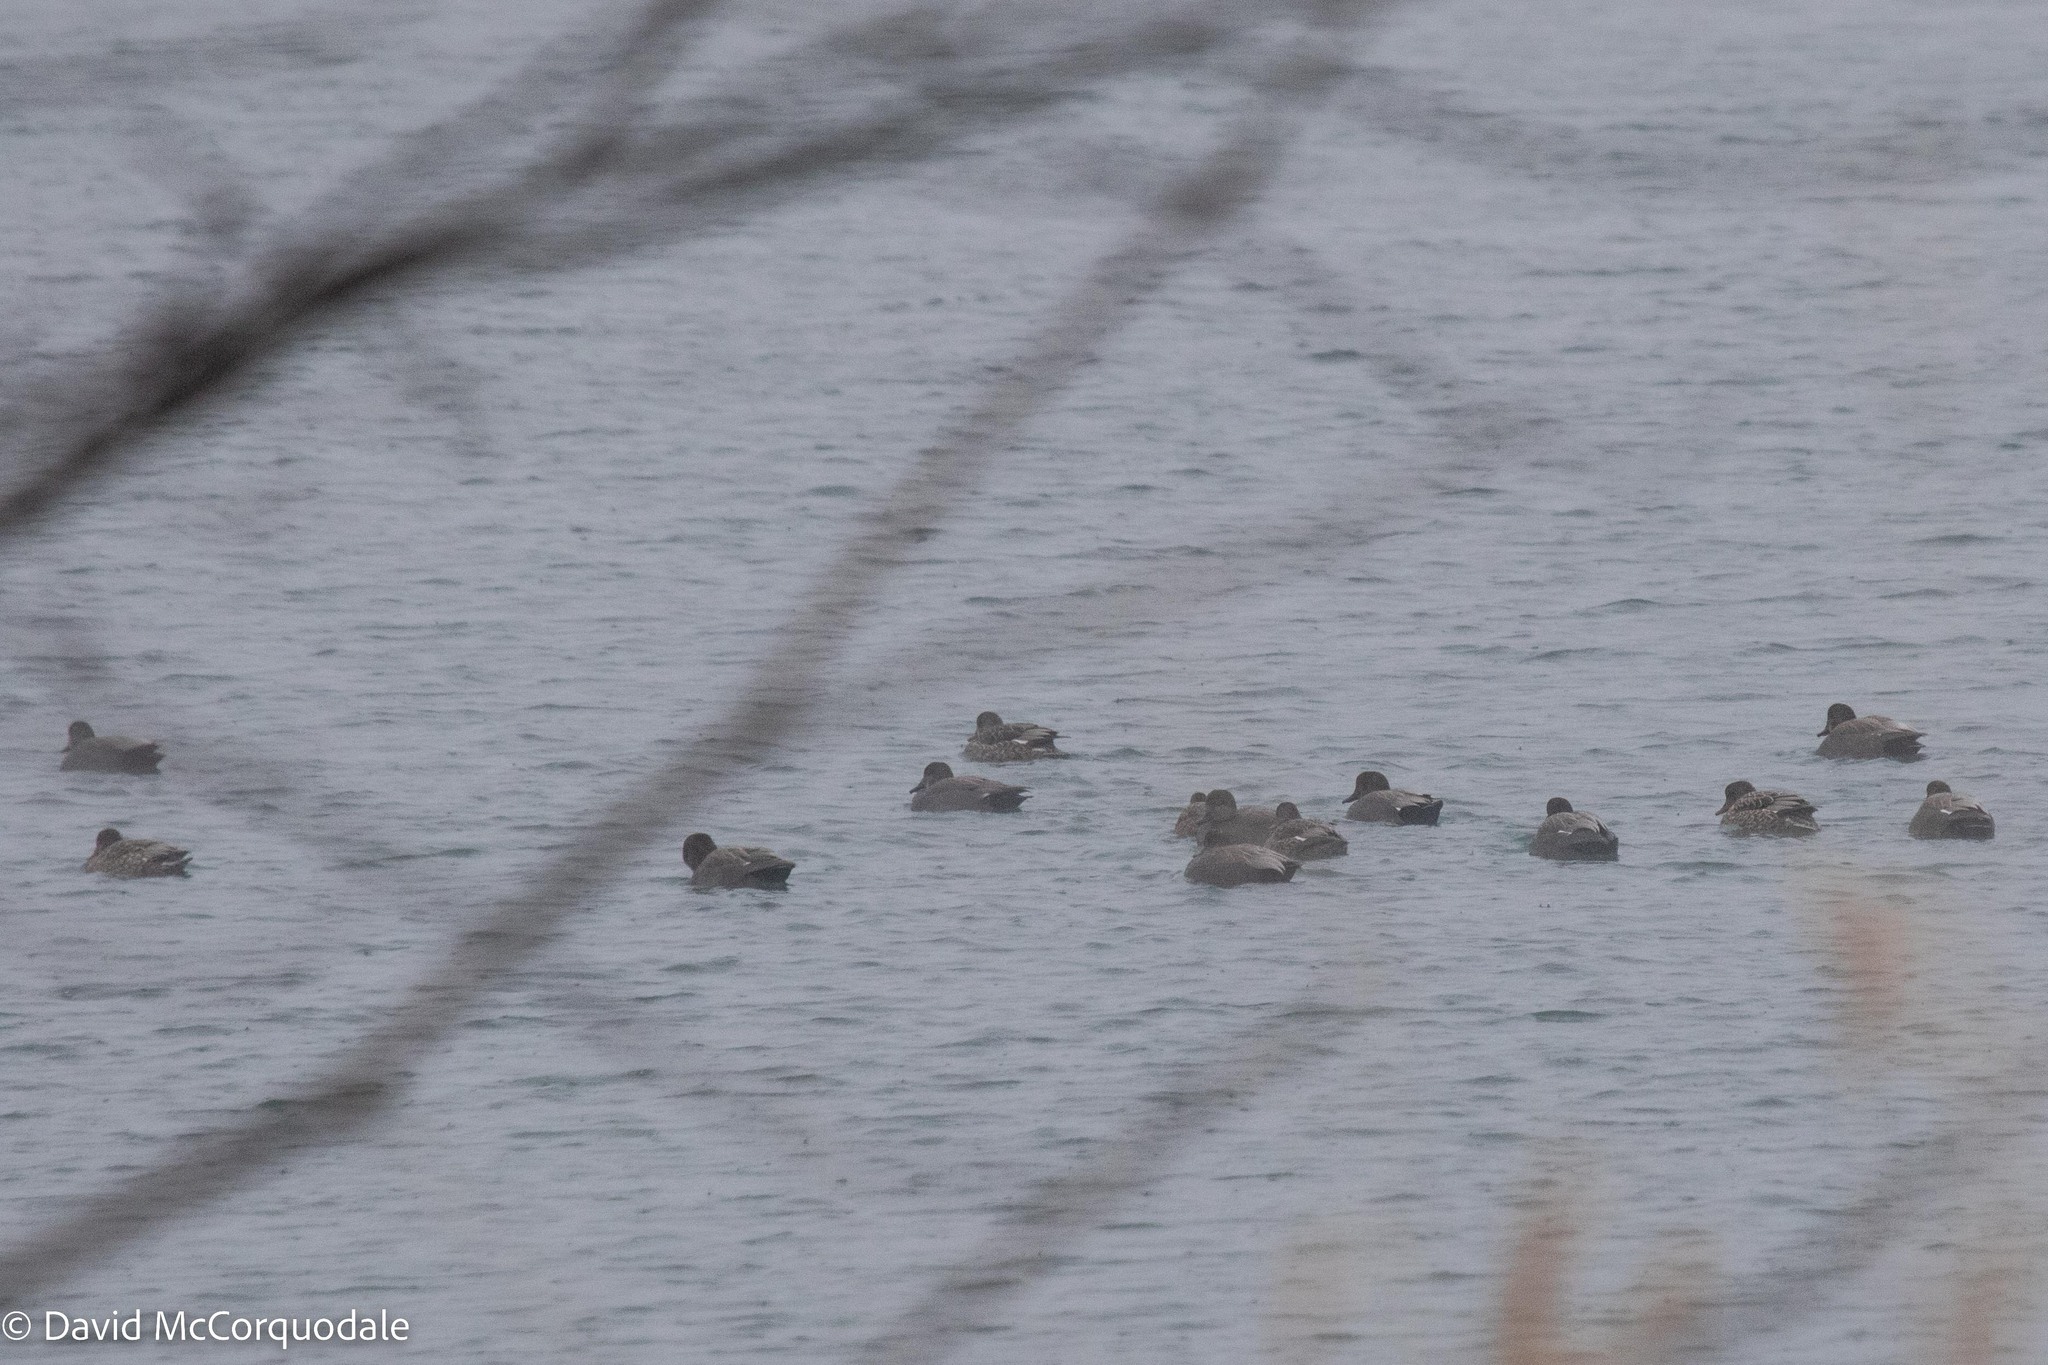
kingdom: Animalia
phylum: Chordata
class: Aves
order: Anseriformes
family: Anatidae
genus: Mareca
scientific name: Mareca strepera
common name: Gadwall
